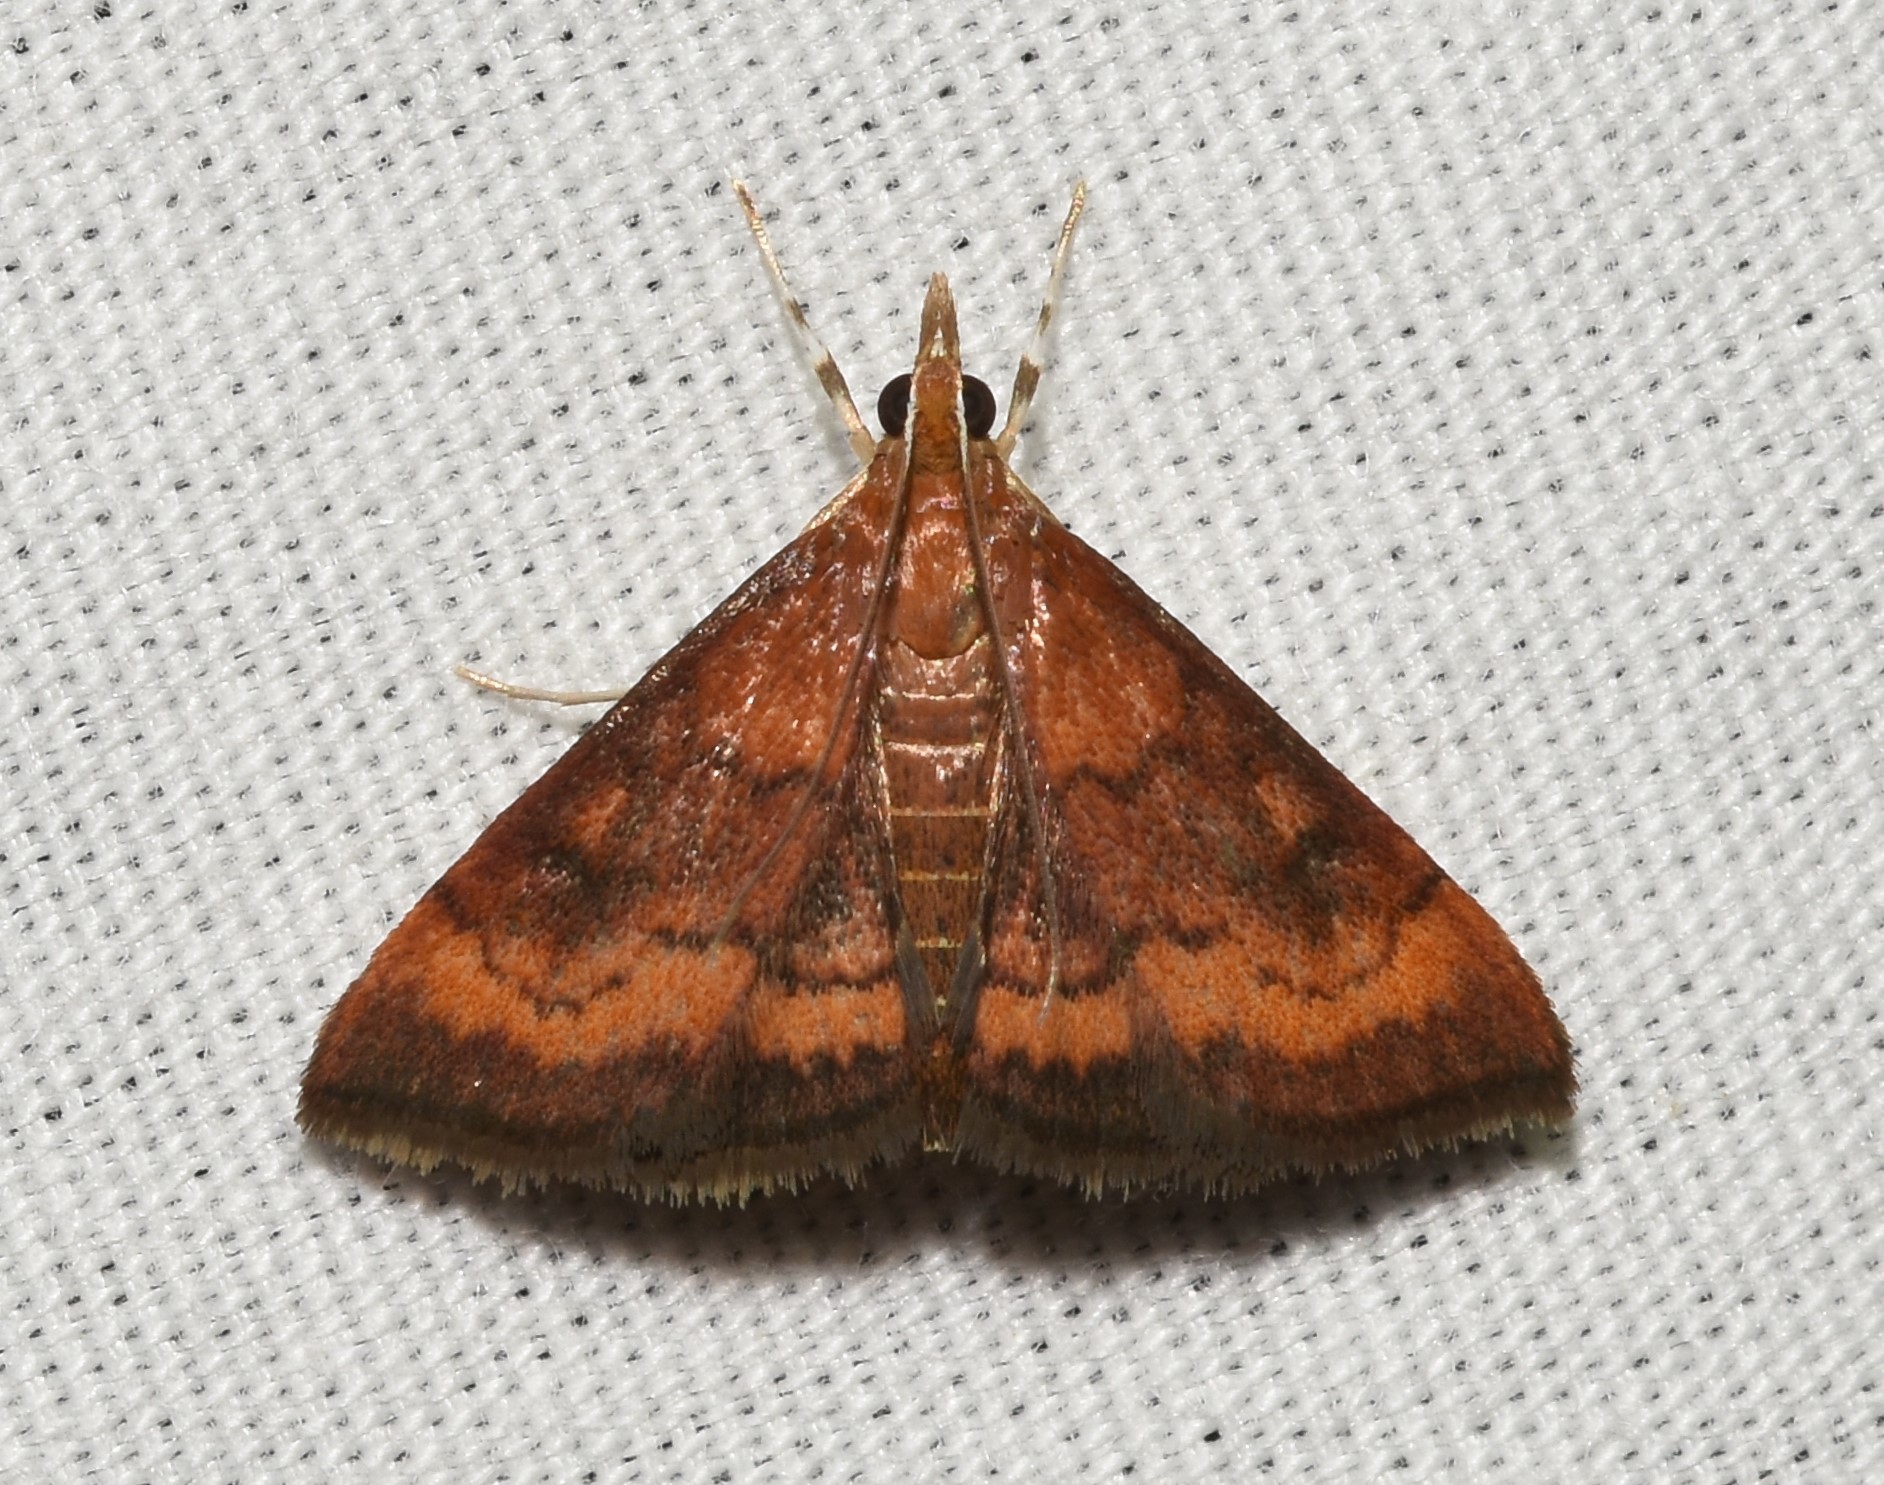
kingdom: Animalia
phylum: Arthropoda
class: Insecta
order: Lepidoptera
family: Crambidae
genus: Pyrausta
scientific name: Pyrausta rubricalis
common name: Variable reddish pyrausta
